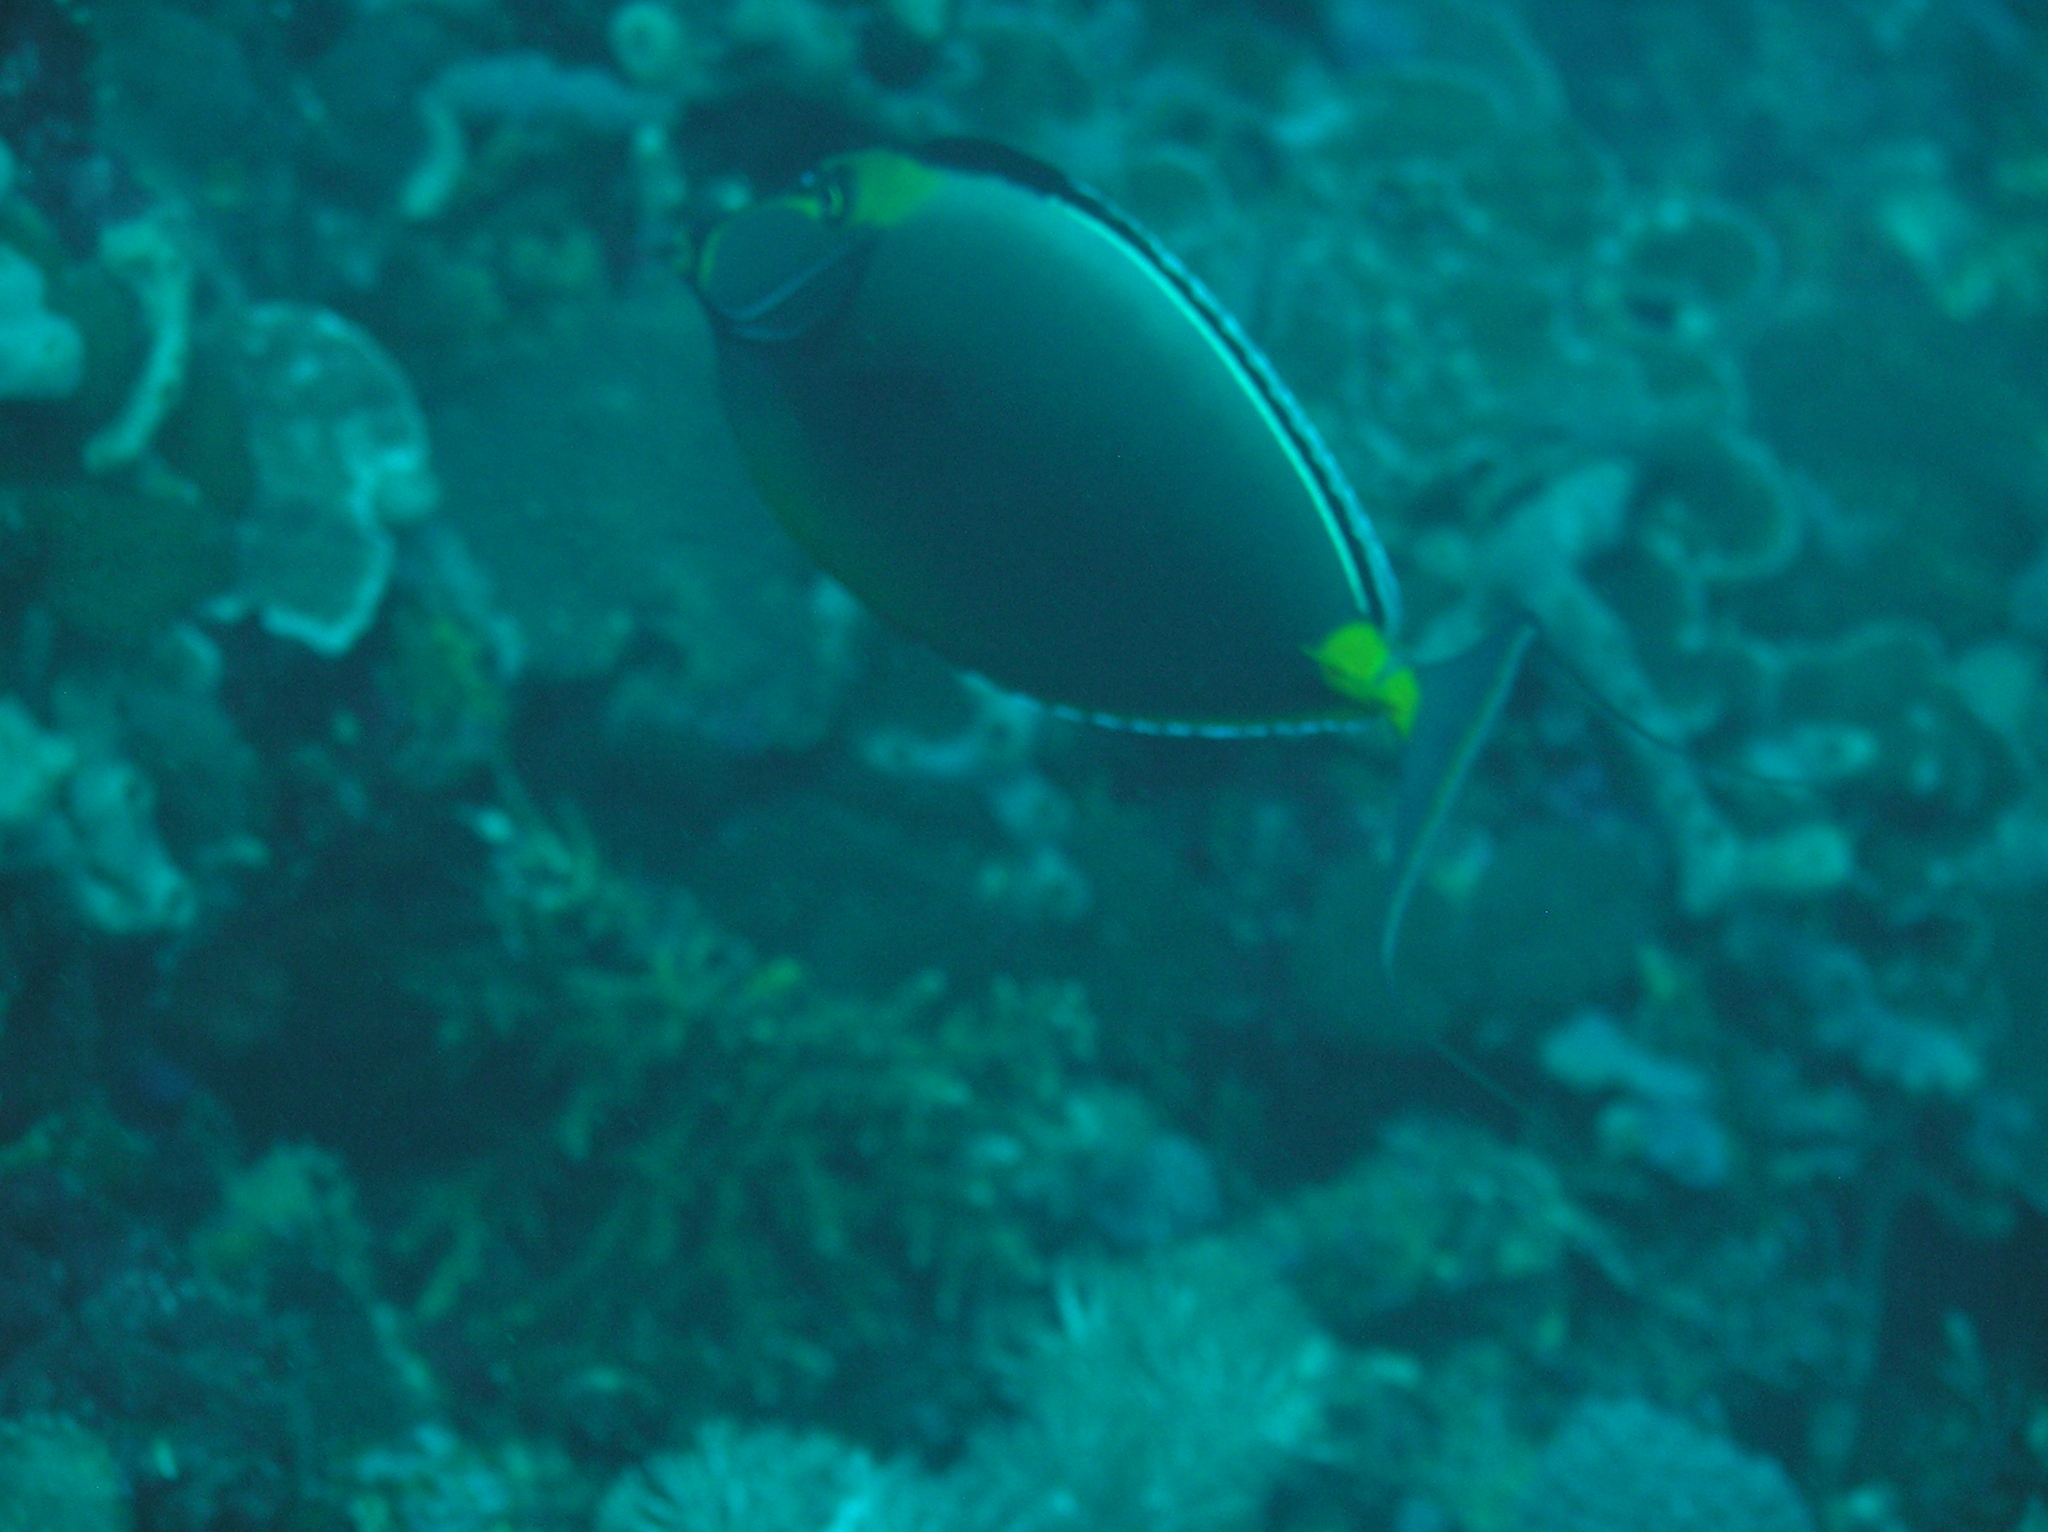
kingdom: Animalia
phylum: Chordata
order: Perciformes
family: Acanthuridae
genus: Naso
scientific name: Naso lituratus
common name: Orangespine unicornfish
